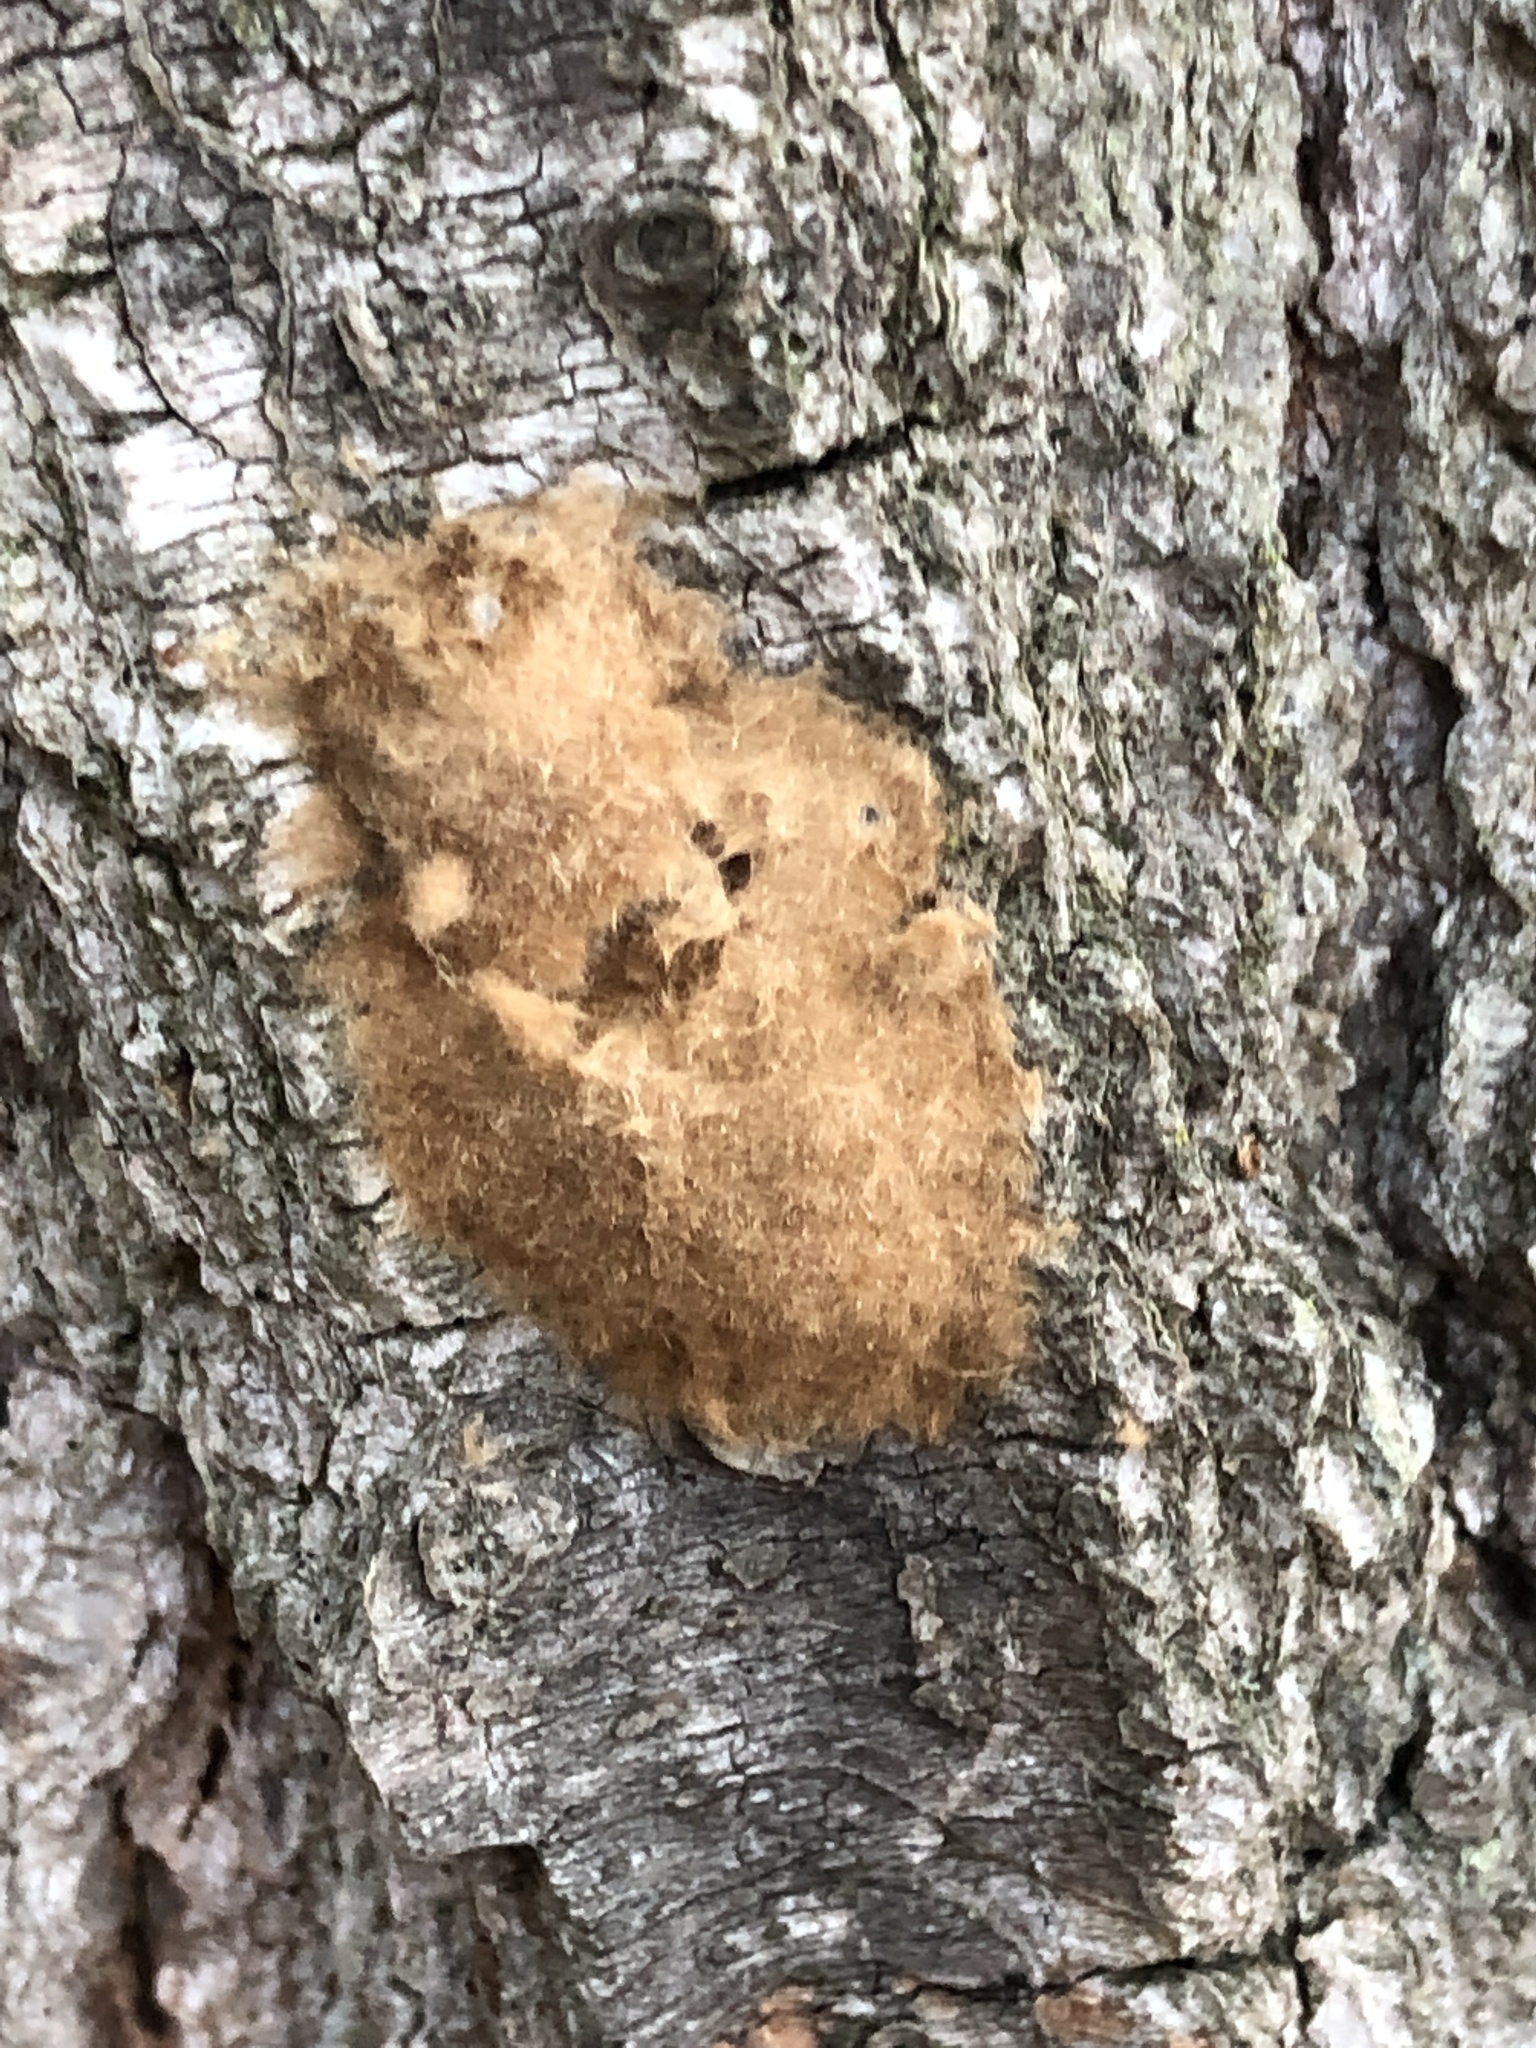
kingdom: Animalia
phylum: Arthropoda
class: Insecta
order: Lepidoptera
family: Erebidae
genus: Lymantria
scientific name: Lymantria dispar
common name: Gypsy moth
